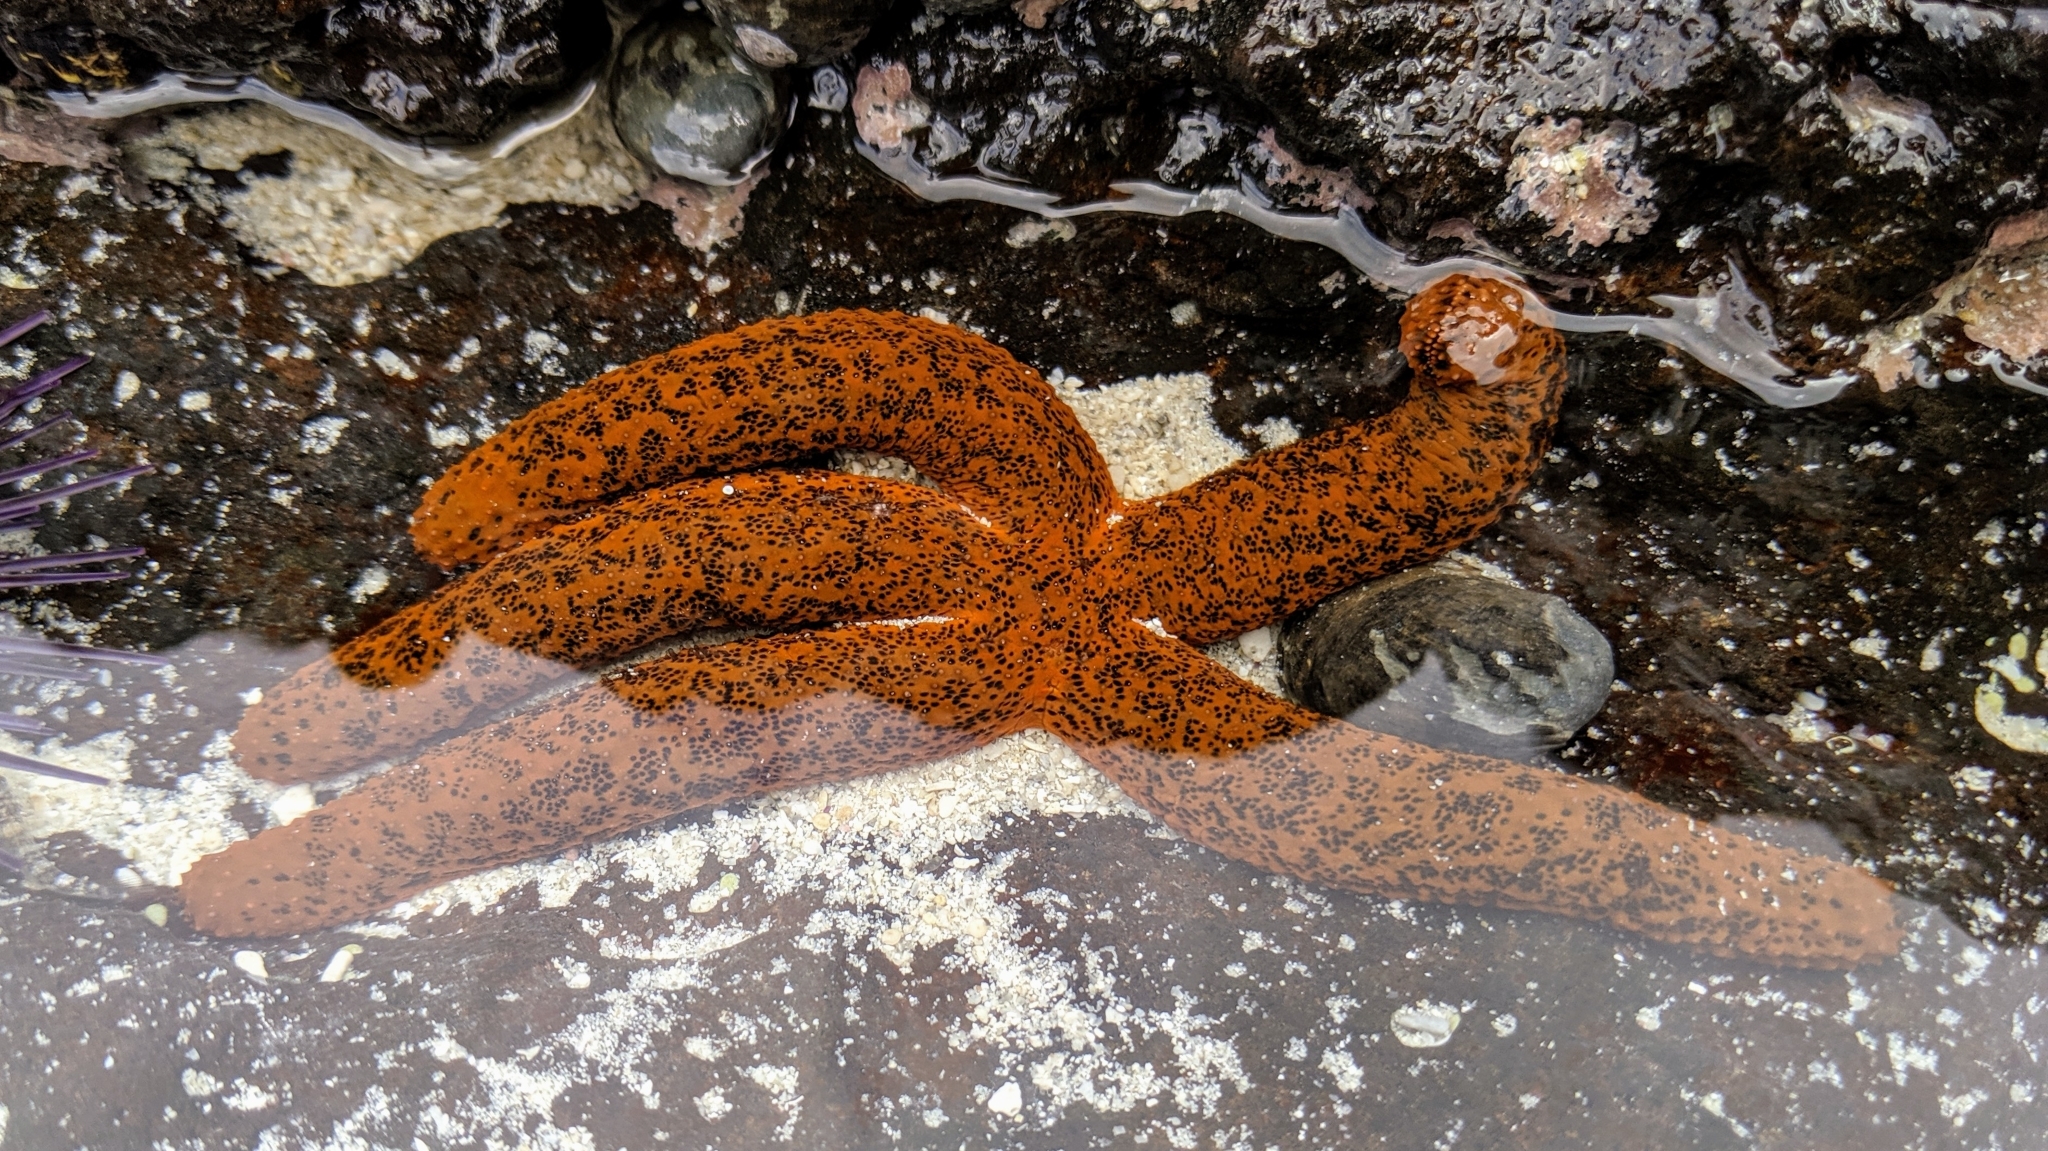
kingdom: Animalia
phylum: Echinodermata
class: Asteroidea
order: Spinulosida
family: Echinasteridae
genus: Echinaster
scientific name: Echinaster purpureus
